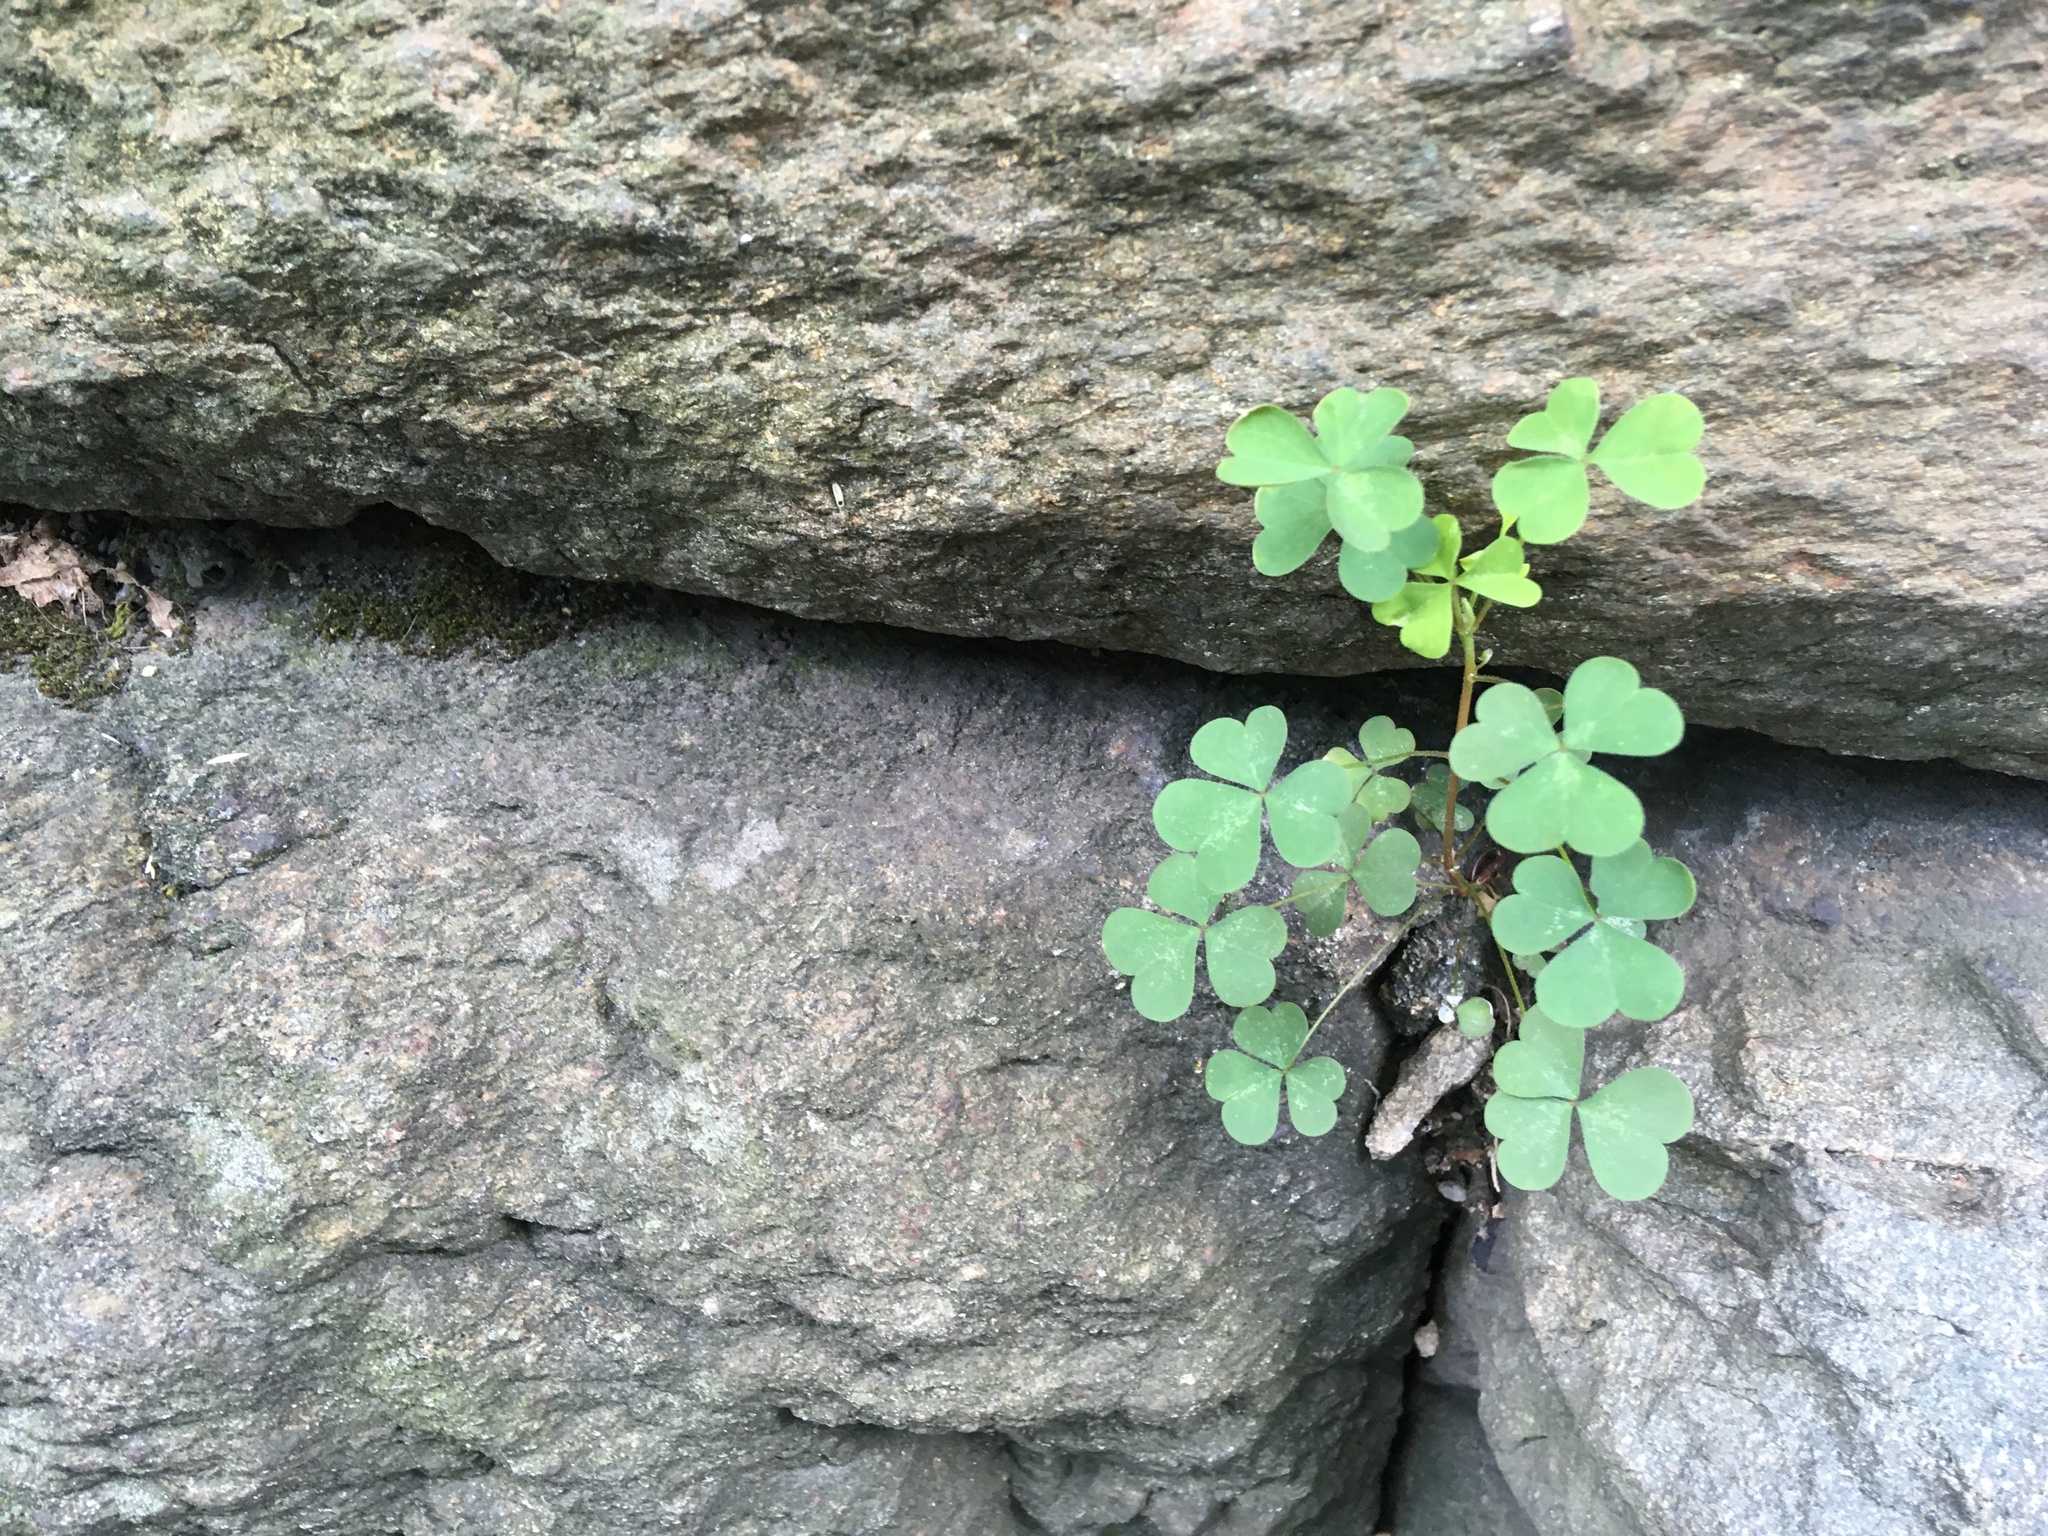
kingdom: Plantae
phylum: Tracheophyta
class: Magnoliopsida
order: Oxalidales
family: Oxalidaceae
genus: Oxalis
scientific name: Oxalis corniculata
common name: Procumbent yellow-sorrel
